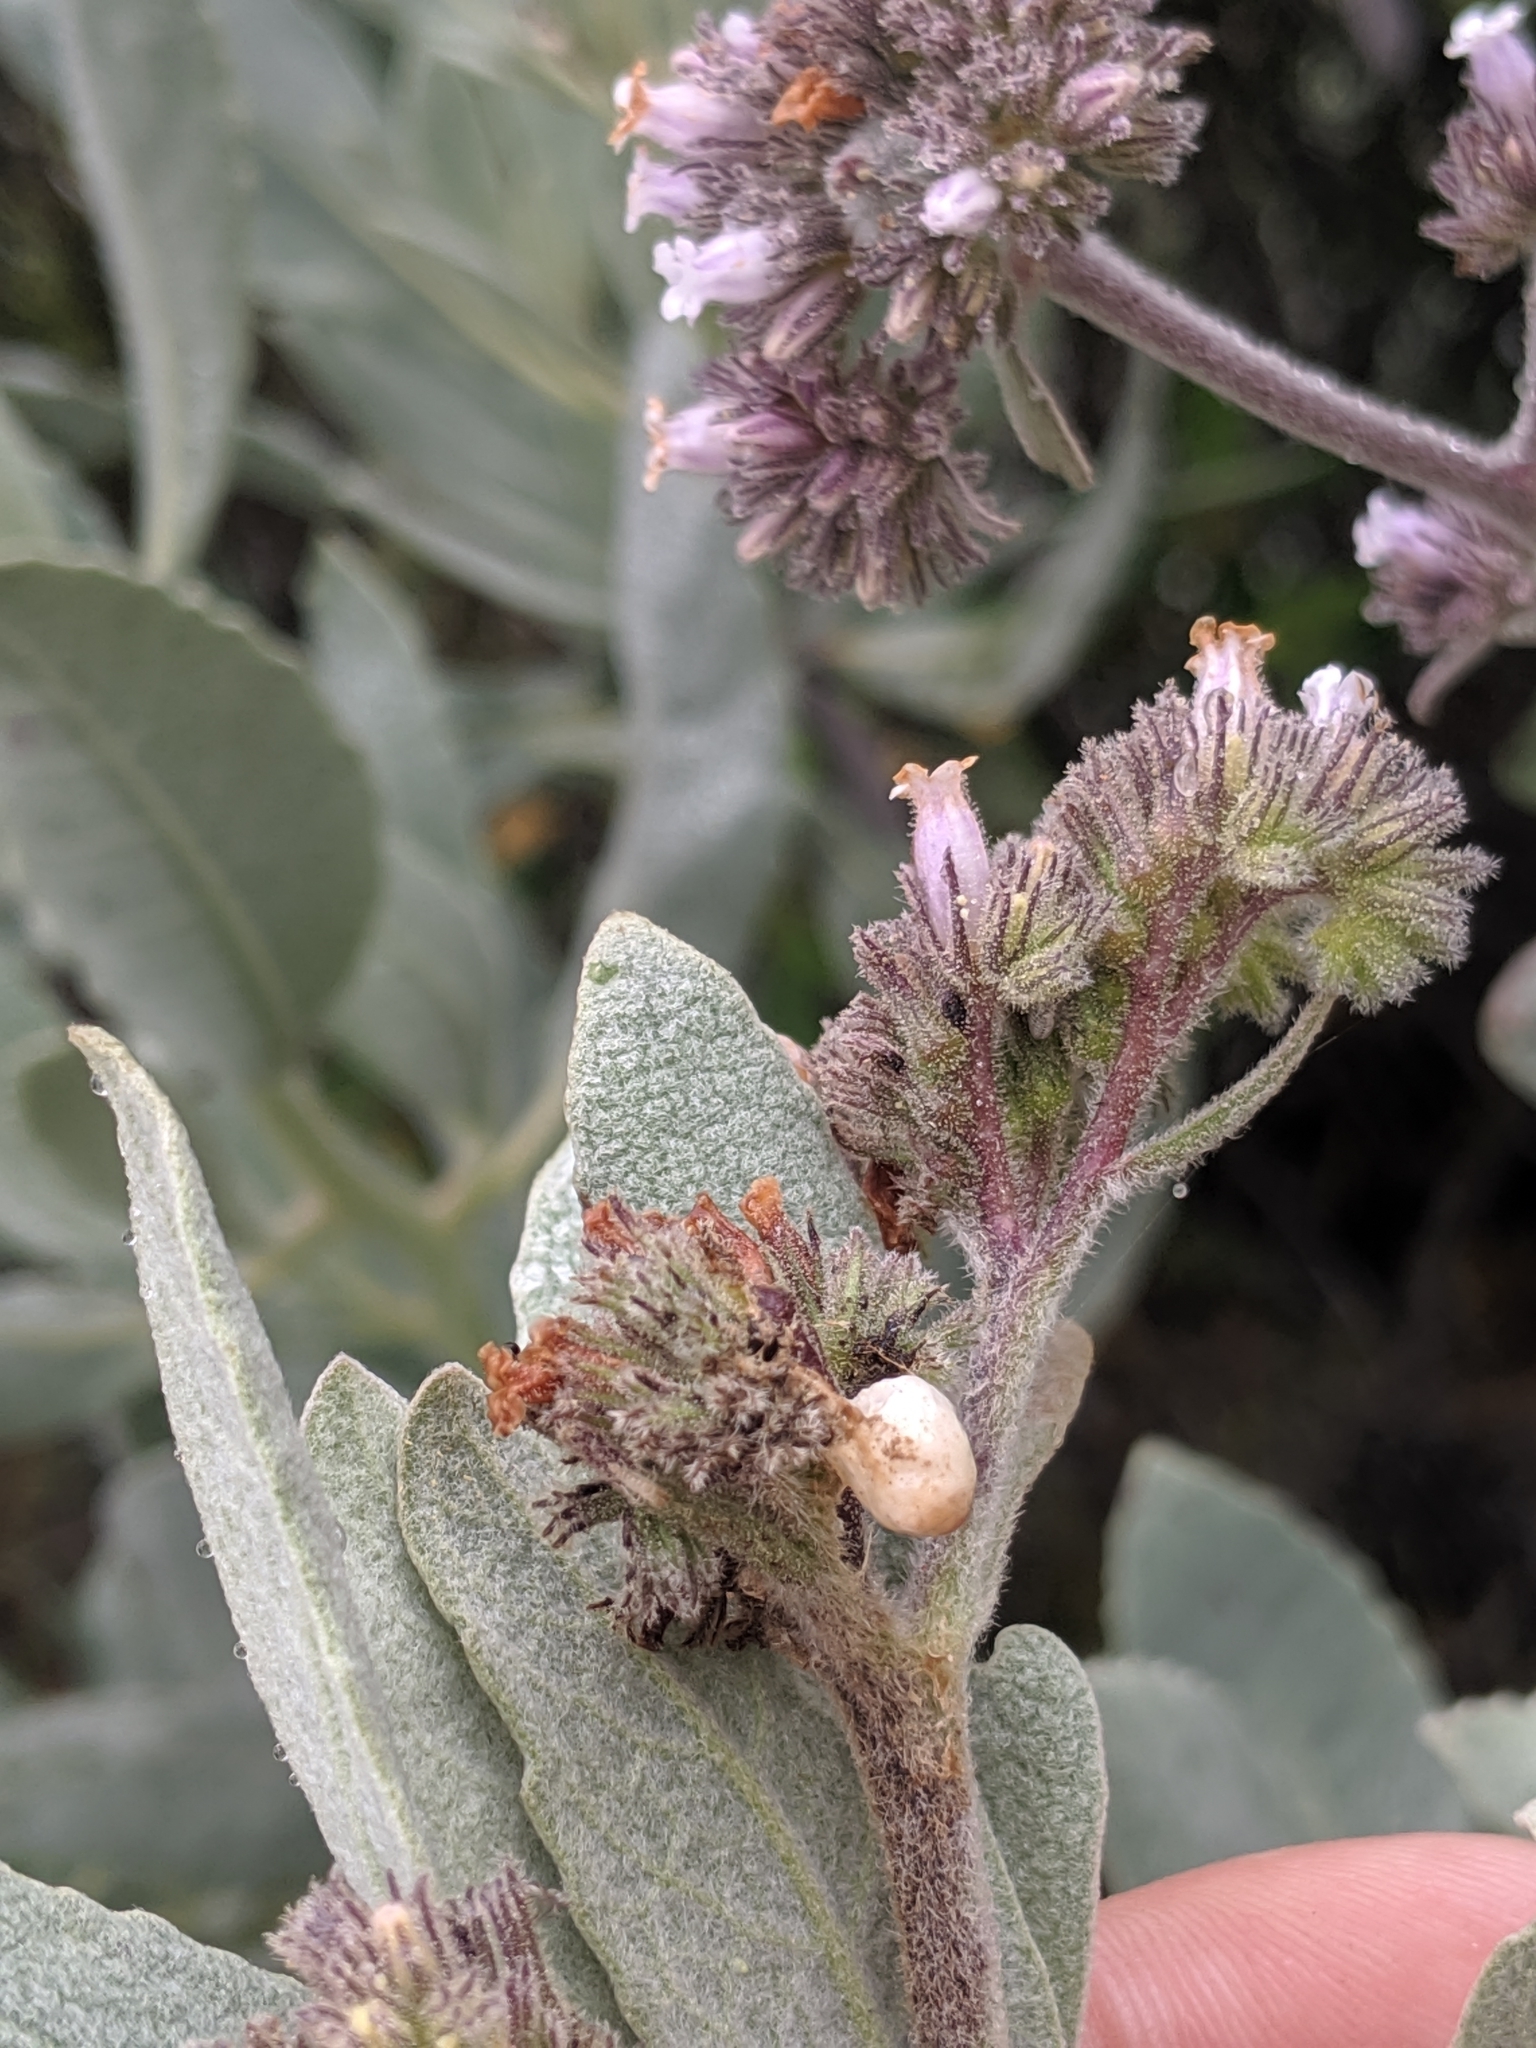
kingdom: Plantae
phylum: Tracheophyta
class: Magnoliopsida
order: Boraginales
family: Namaceae
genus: Eriodictyon
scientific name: Eriodictyon traskiae
